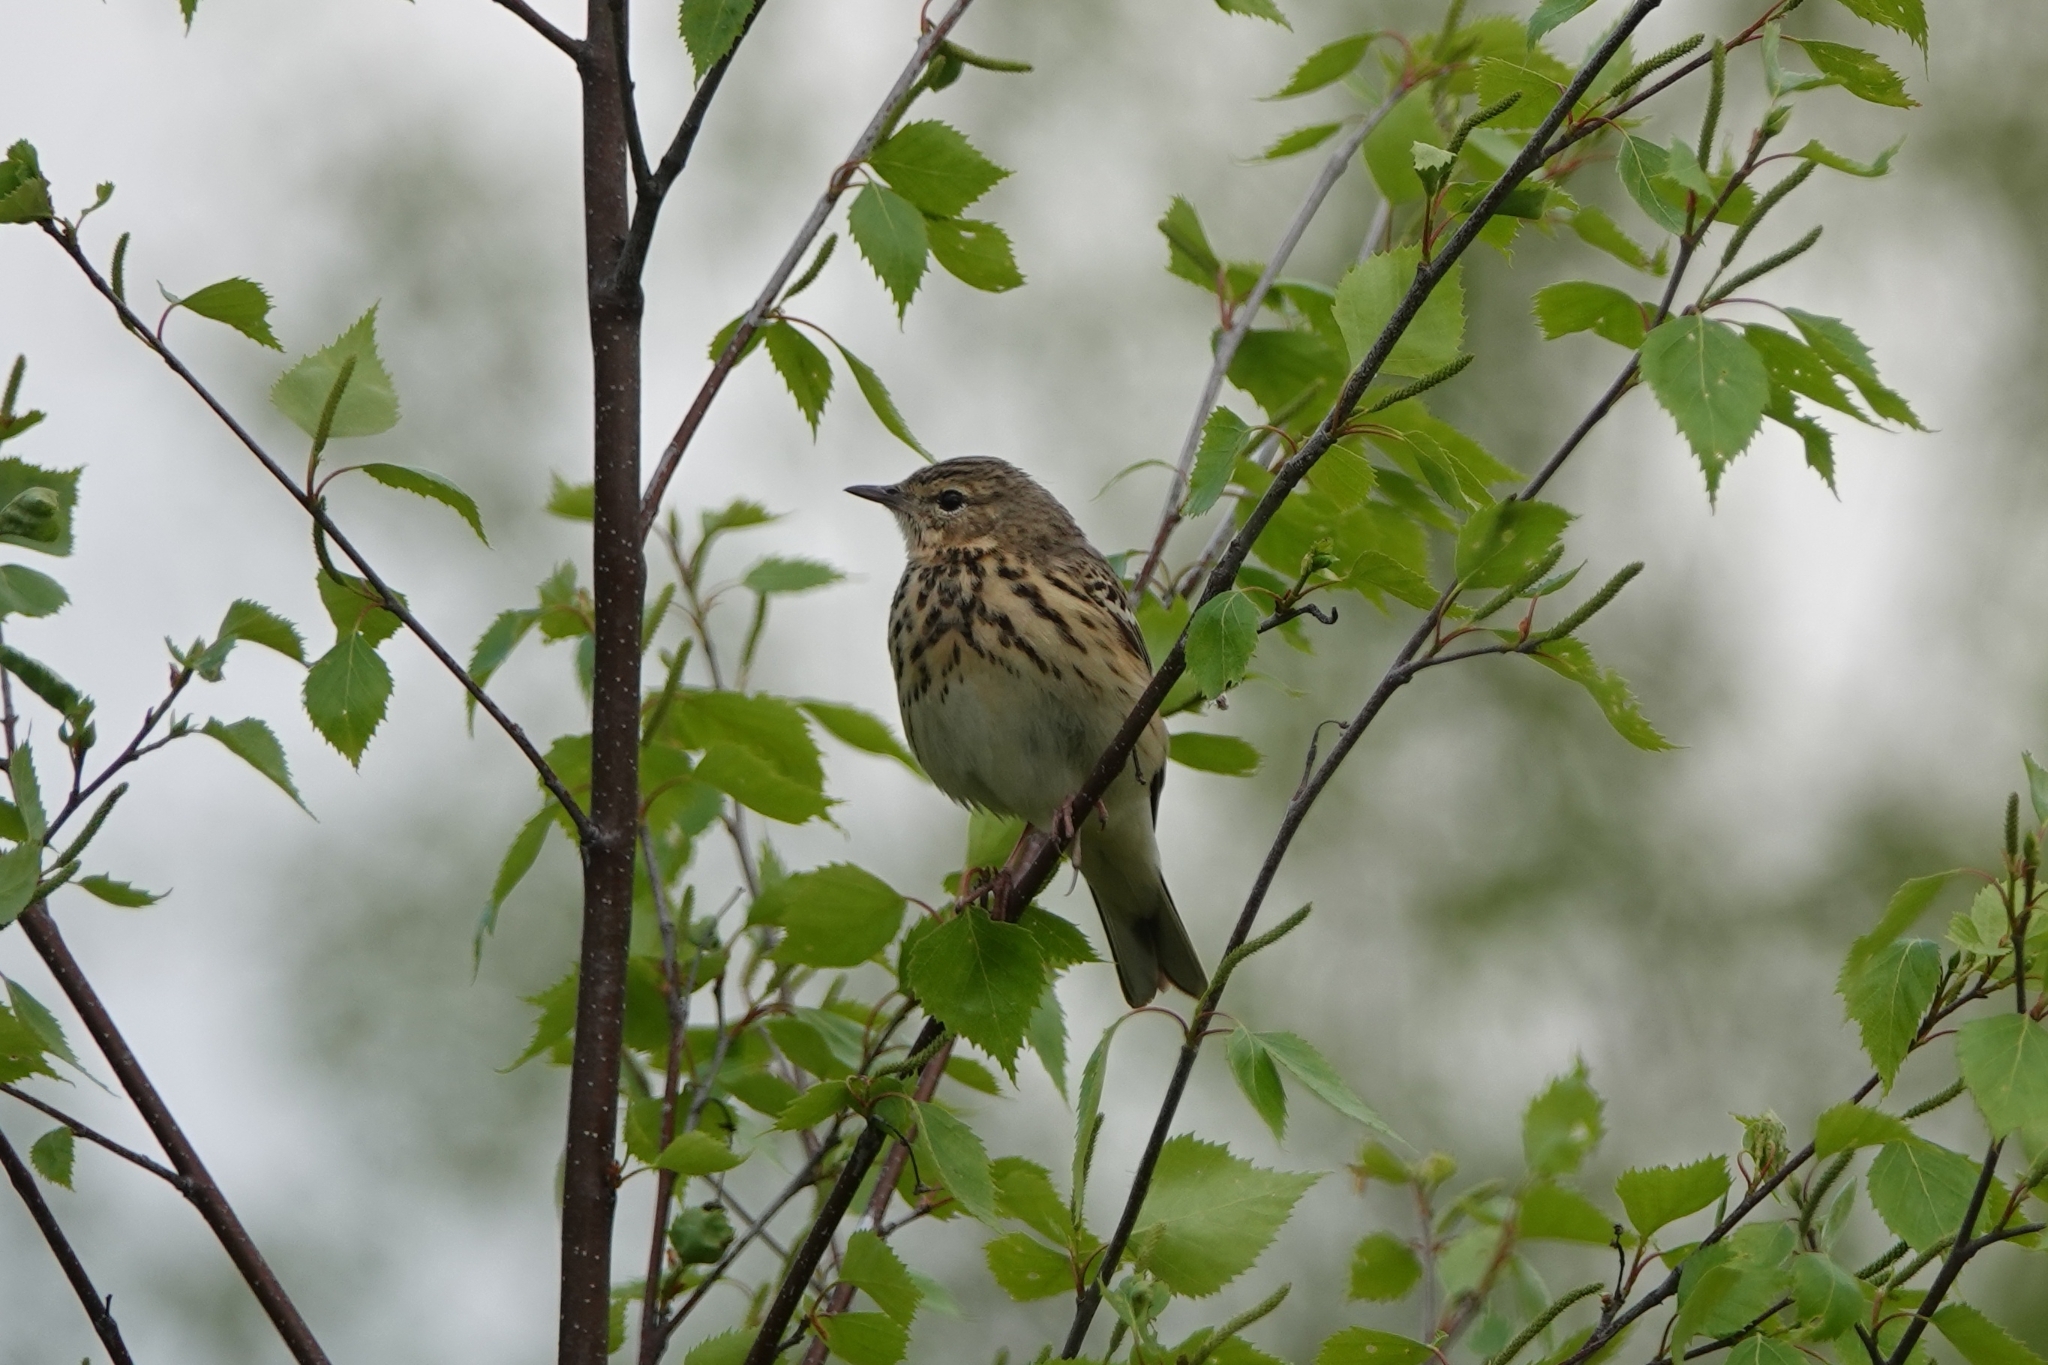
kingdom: Animalia
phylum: Chordata
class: Aves
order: Passeriformes
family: Motacillidae
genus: Anthus
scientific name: Anthus trivialis
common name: Tree pipit
